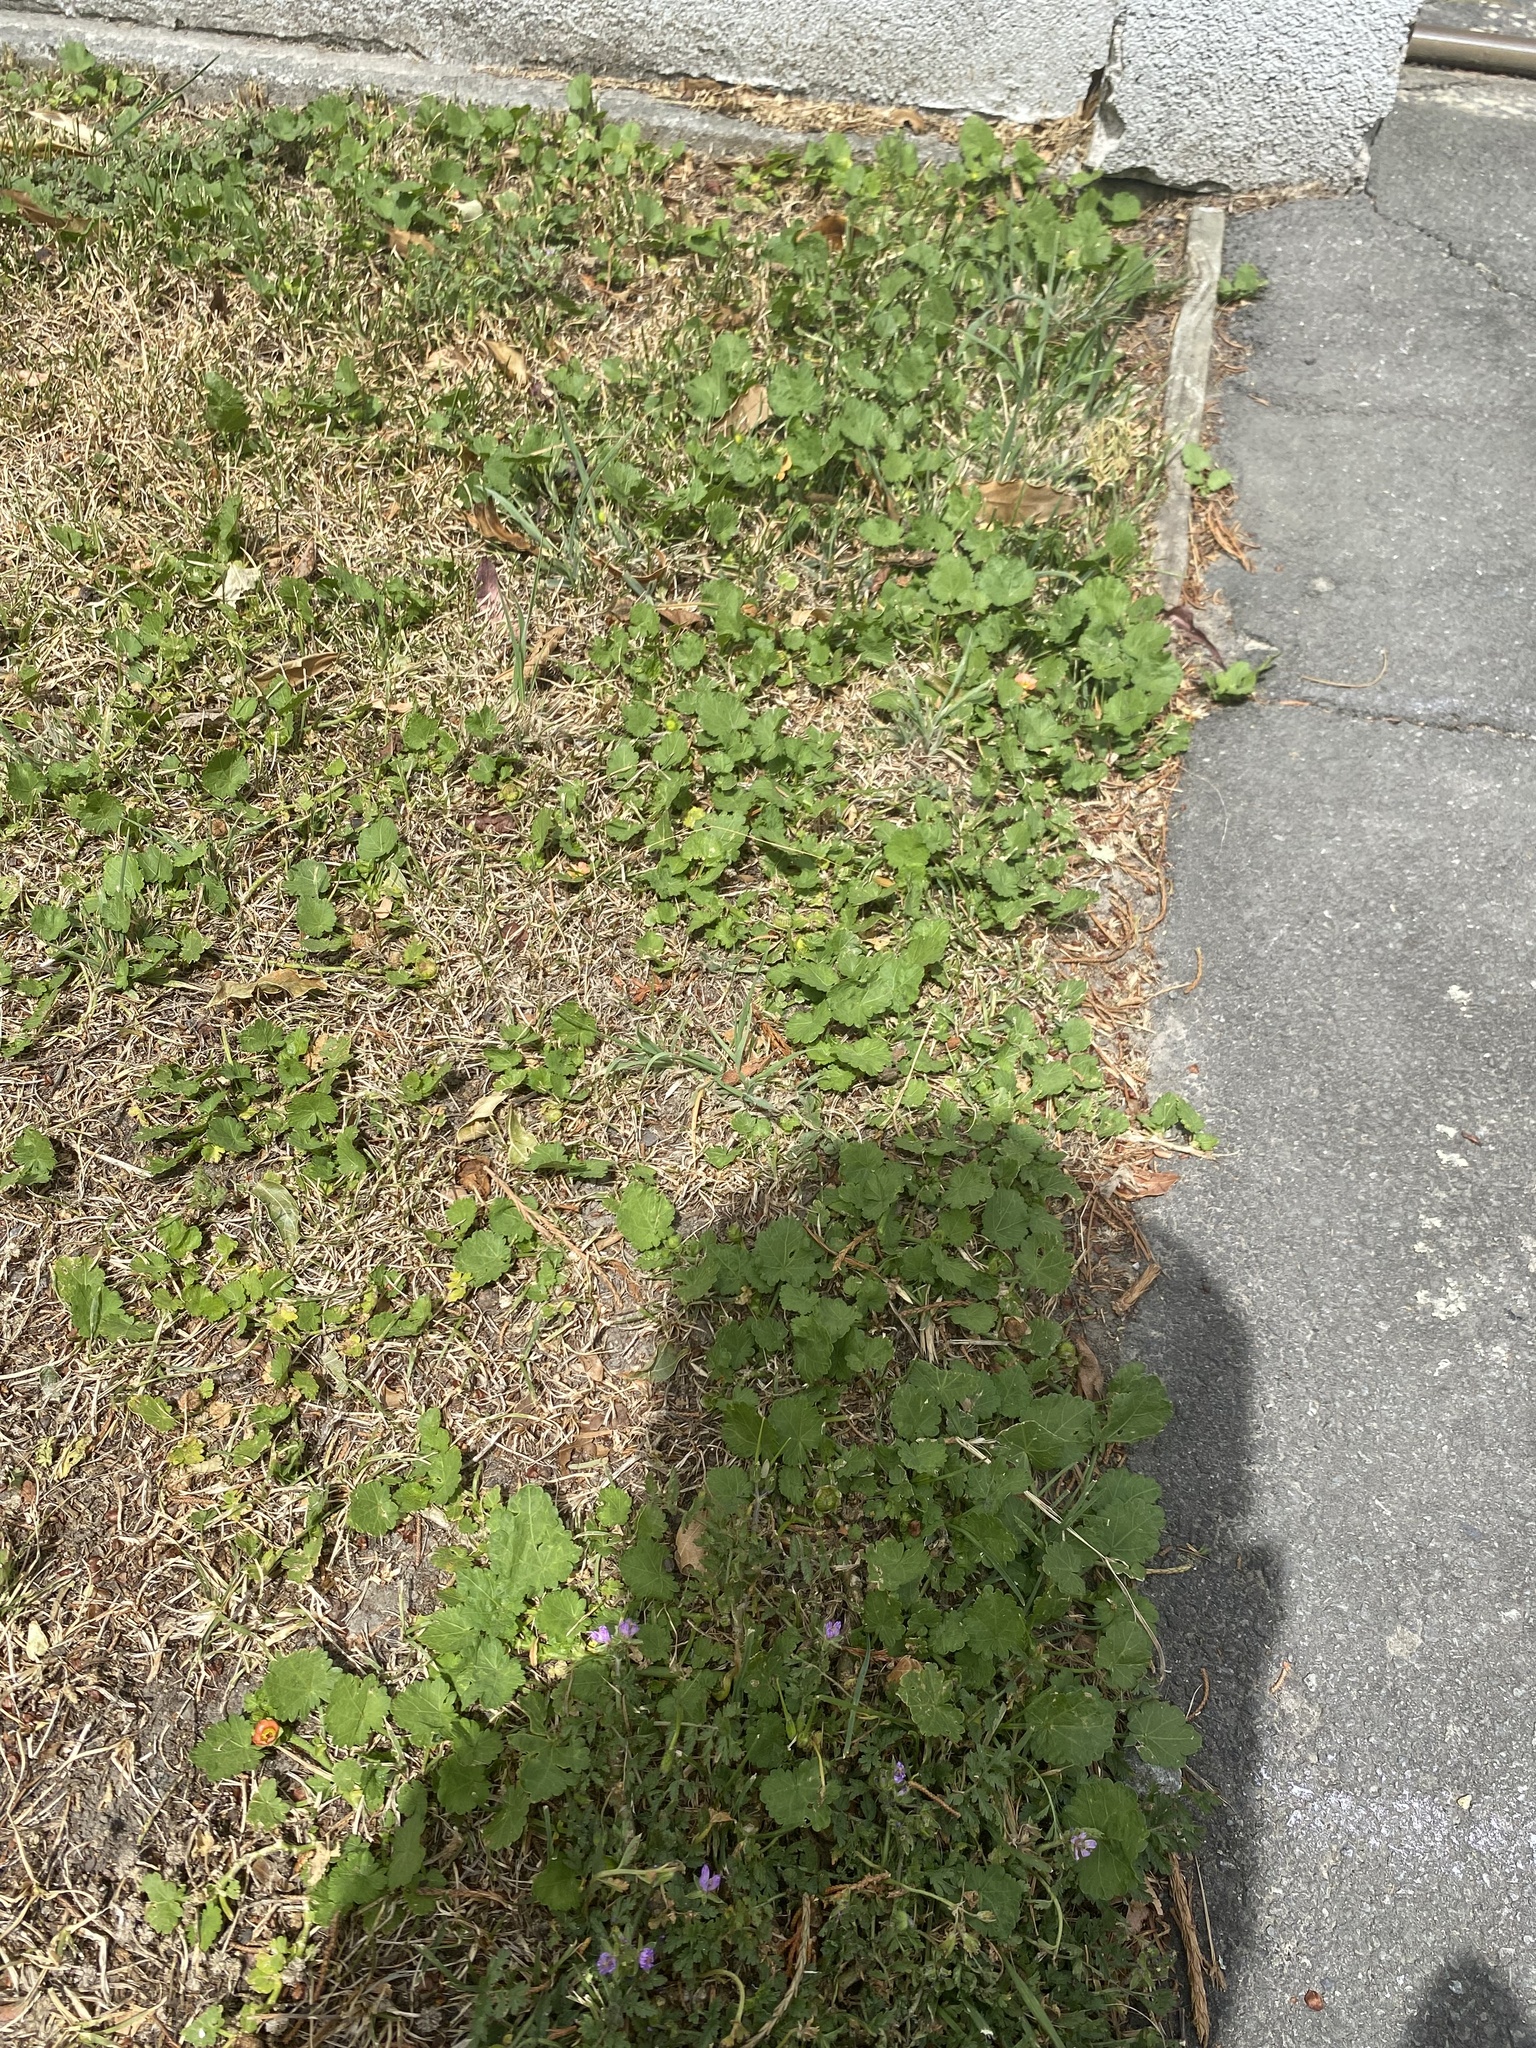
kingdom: Plantae
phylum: Tracheophyta
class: Magnoliopsida
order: Malvales
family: Malvaceae
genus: Modiola
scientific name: Modiola caroliniana
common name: Carolina bristlemallow
